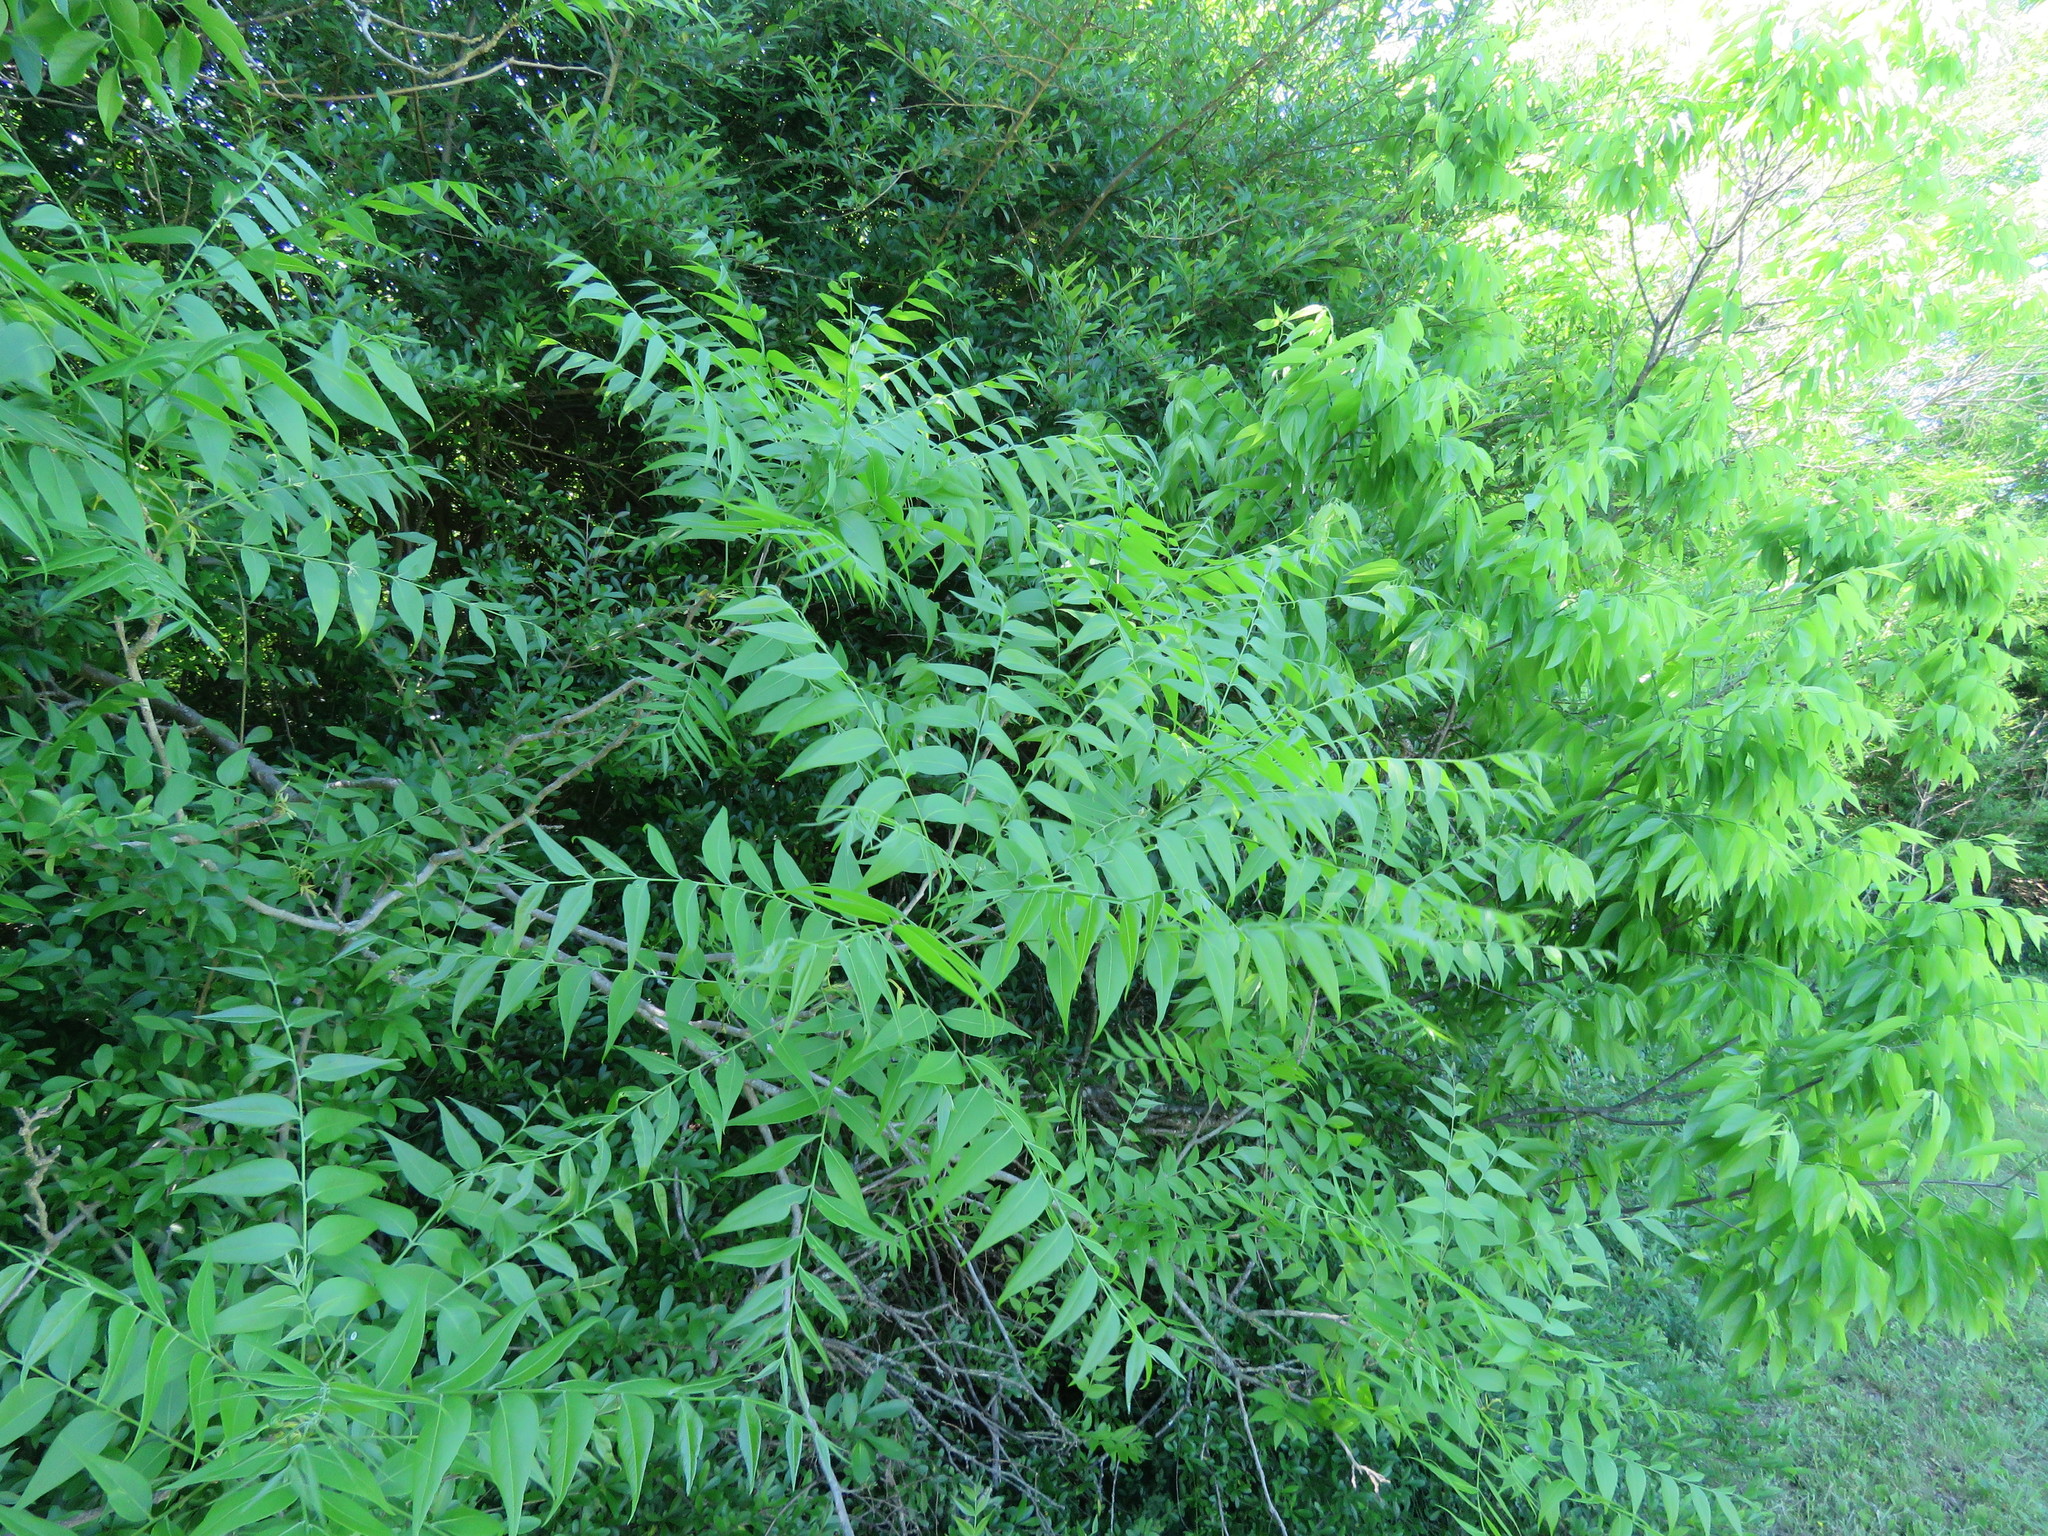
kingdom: Plantae
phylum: Tracheophyta
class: Magnoliopsida
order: Sapindales
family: Sapindaceae
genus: Sapindus
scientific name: Sapindus drummondii
